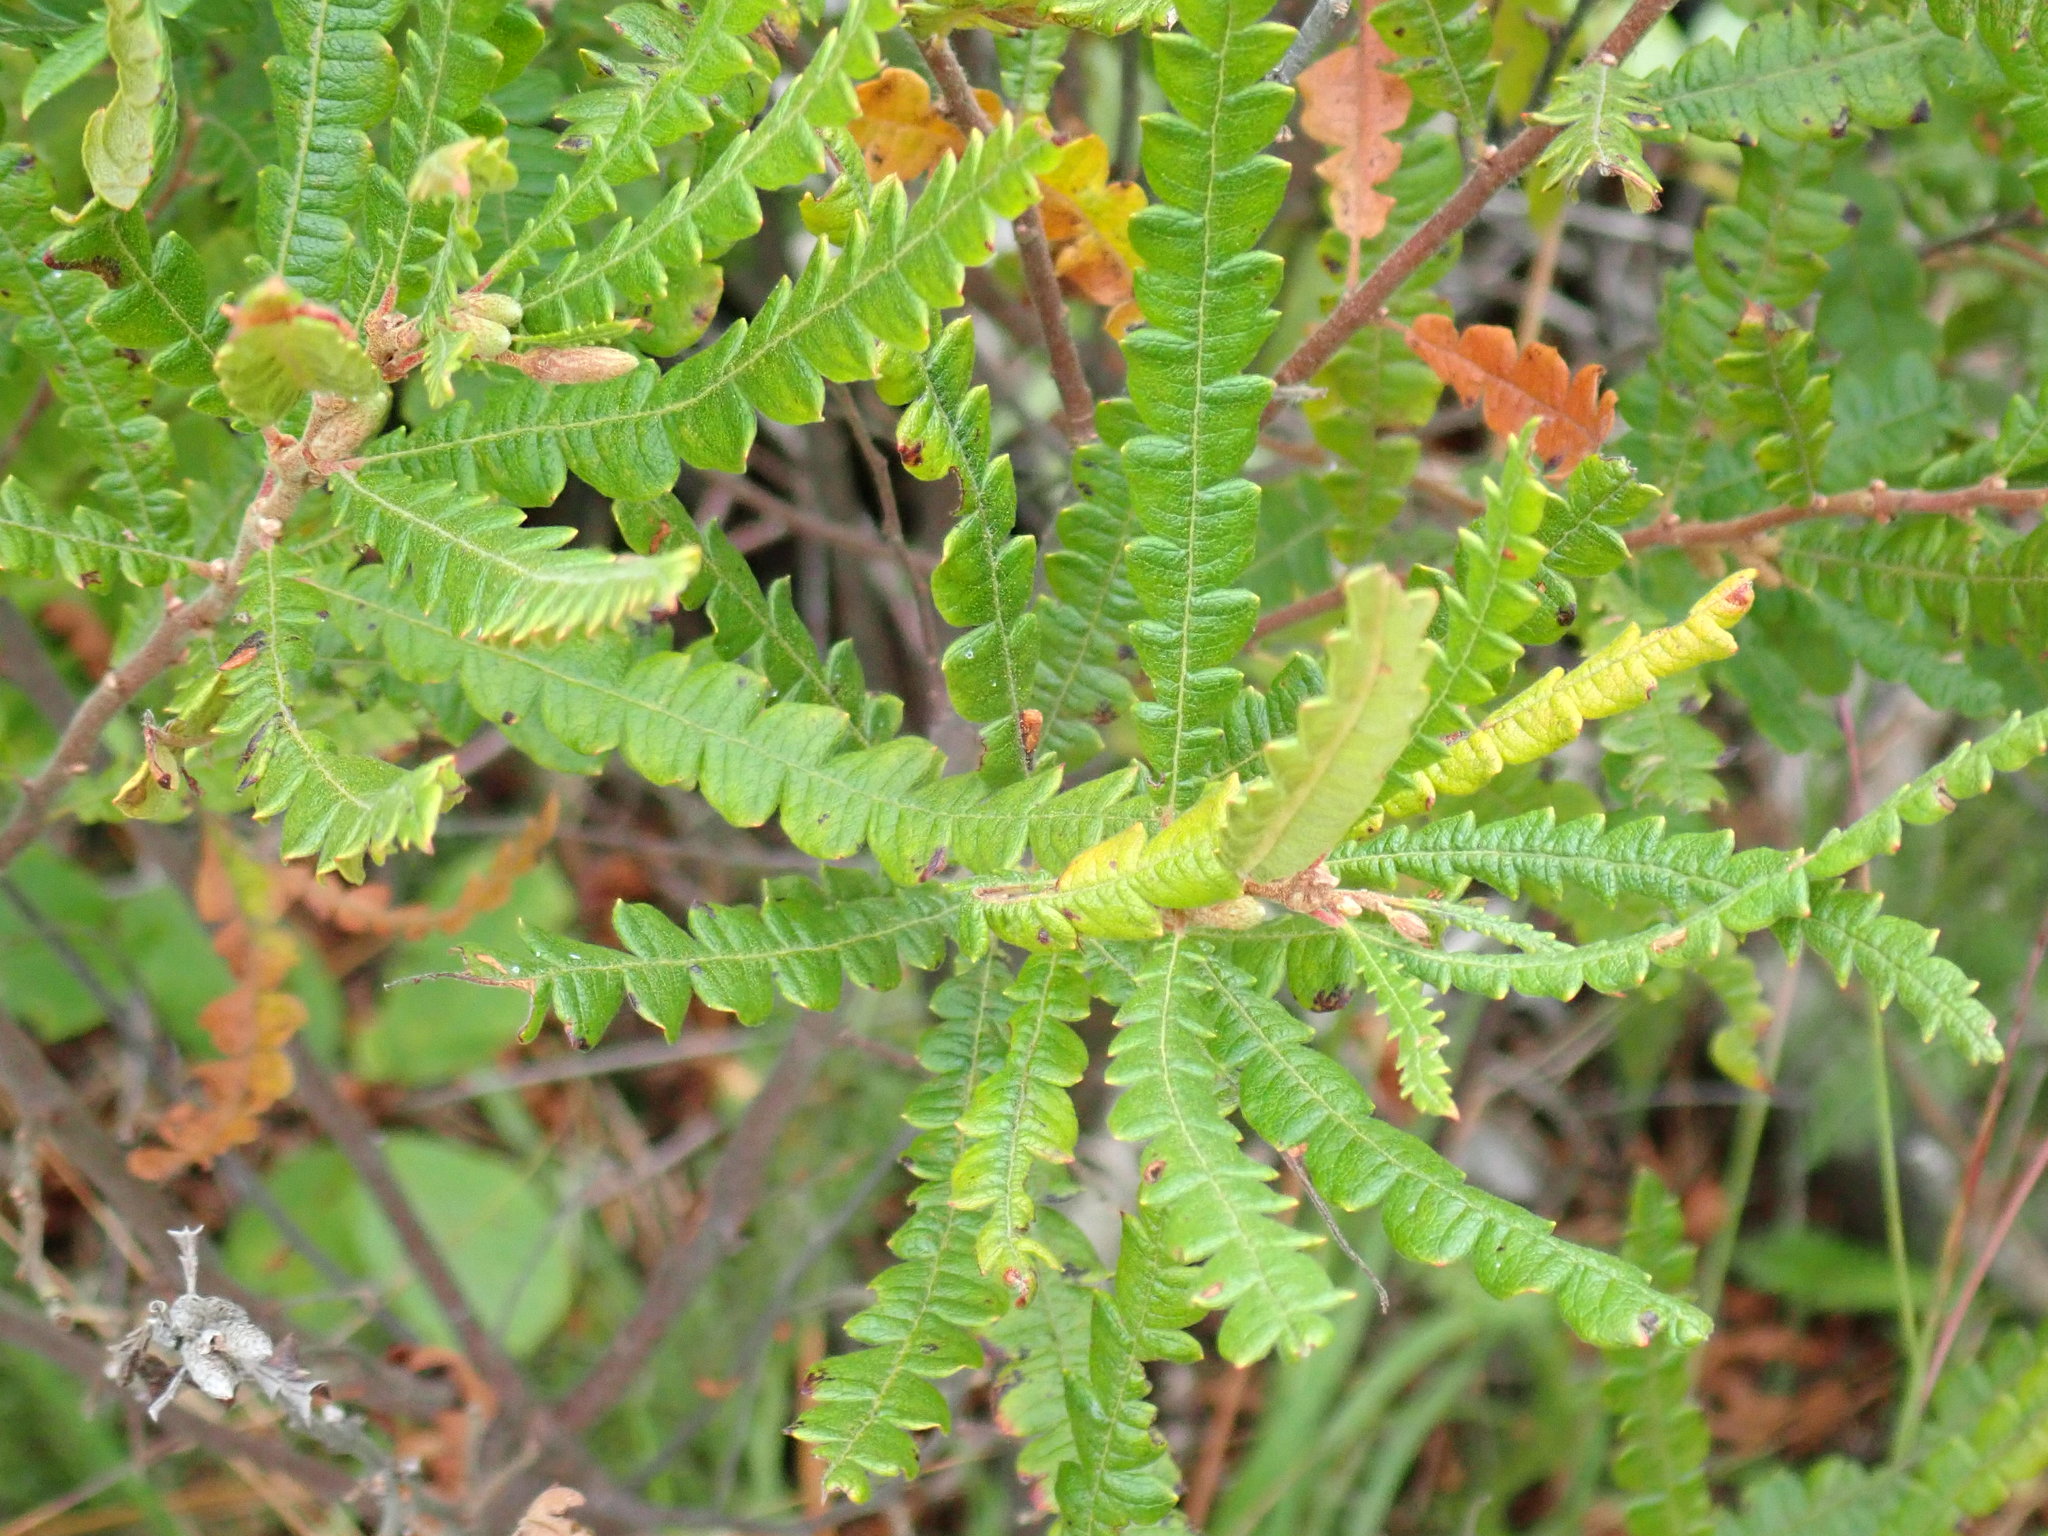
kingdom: Plantae
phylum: Tracheophyta
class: Magnoliopsida
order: Fagales
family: Myricaceae
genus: Comptonia
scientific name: Comptonia peregrina
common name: Sweet-fern
